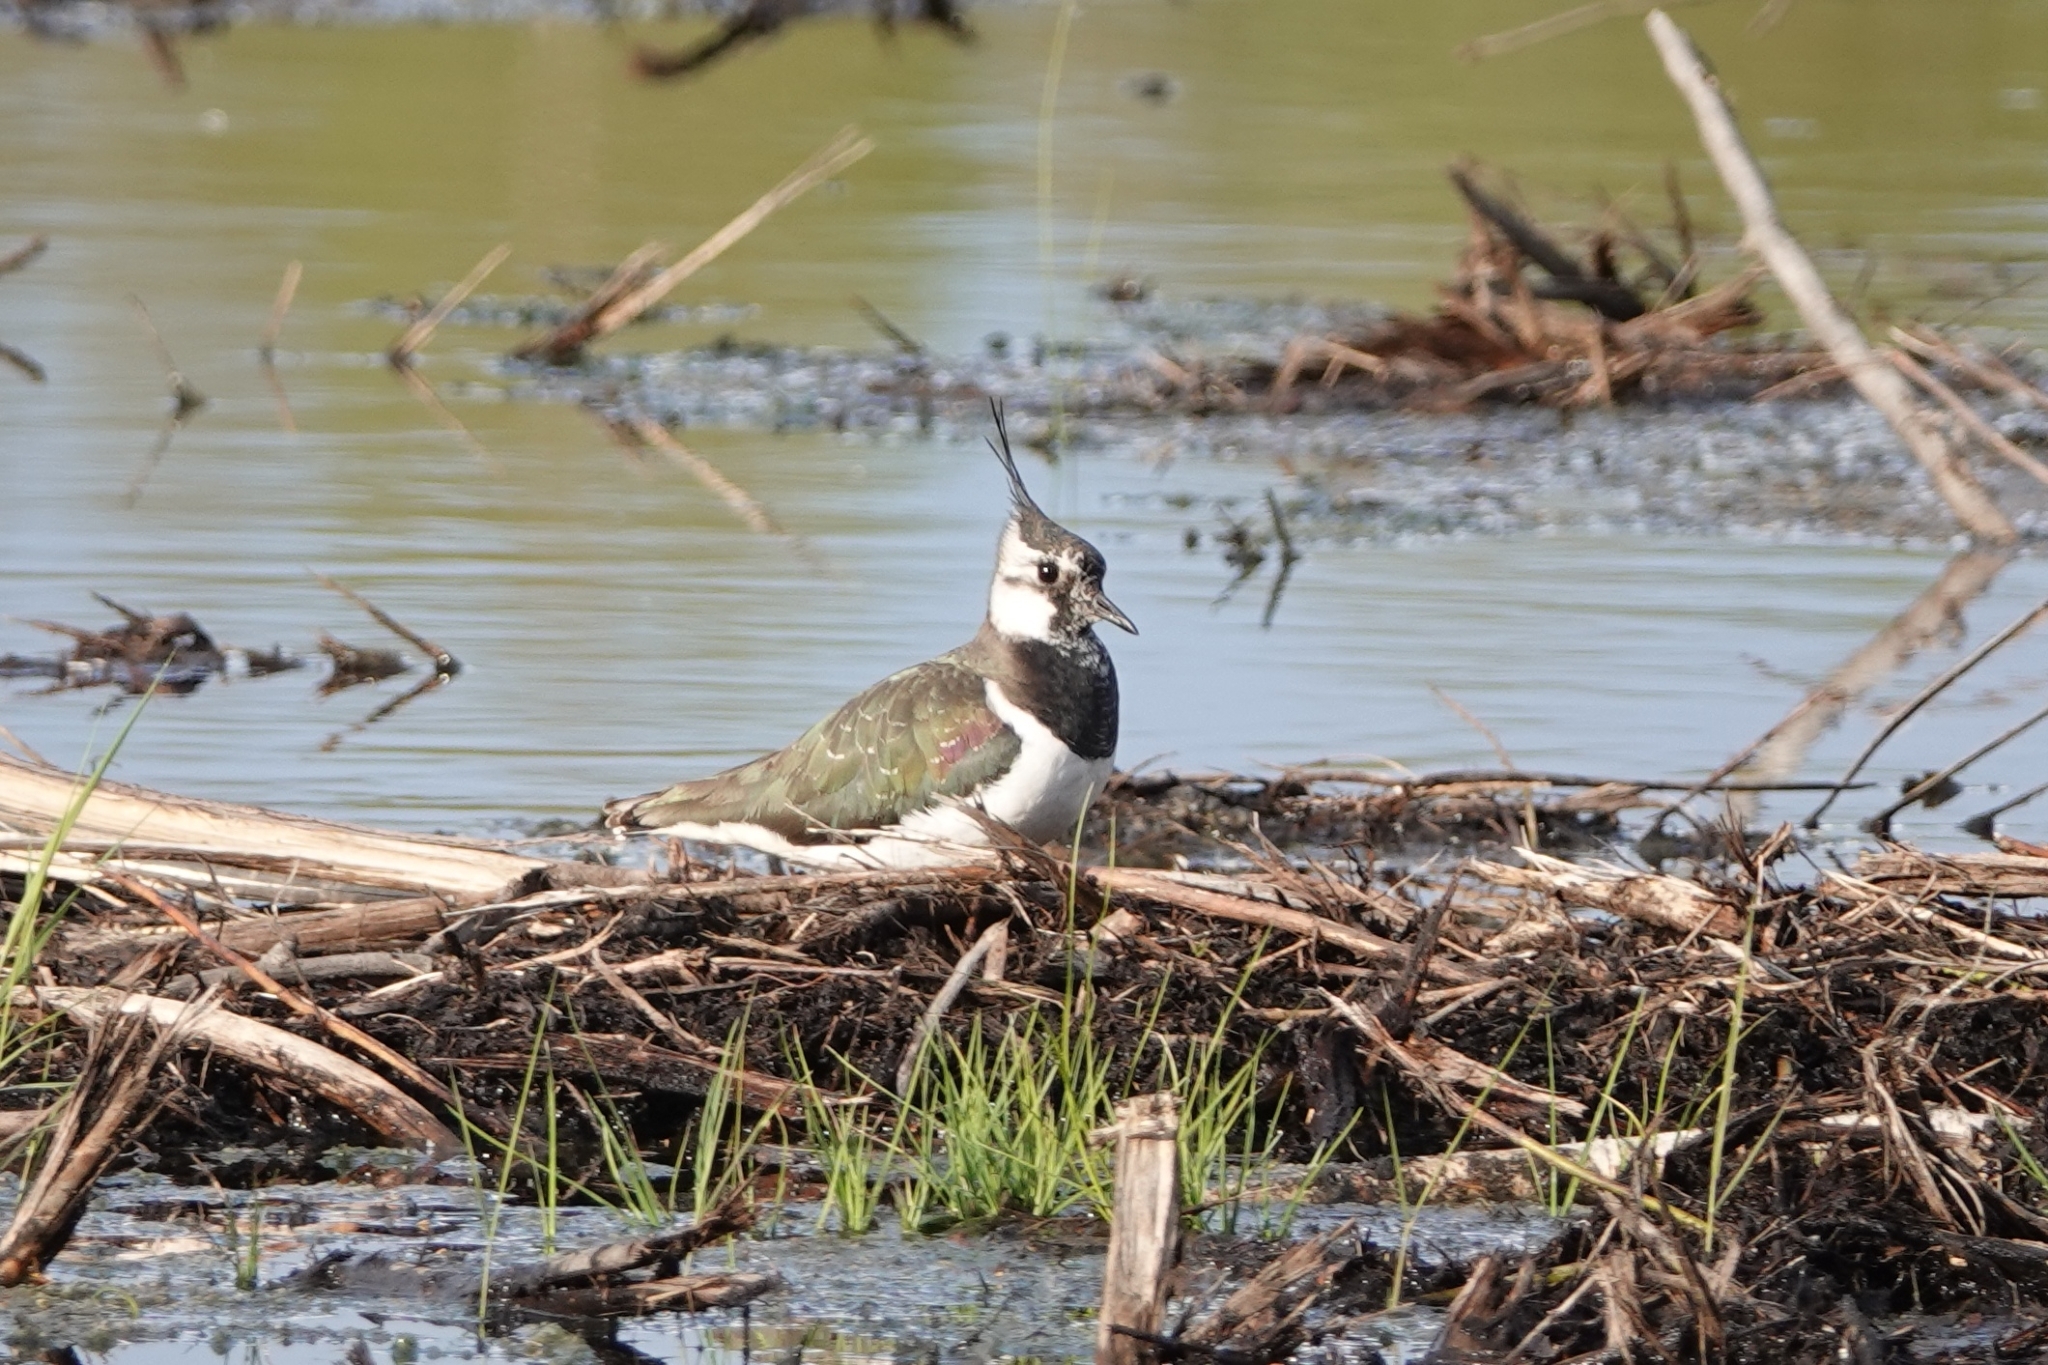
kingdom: Animalia
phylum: Chordata
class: Aves
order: Charadriiformes
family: Charadriidae
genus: Vanellus
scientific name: Vanellus vanellus
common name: Northern lapwing
